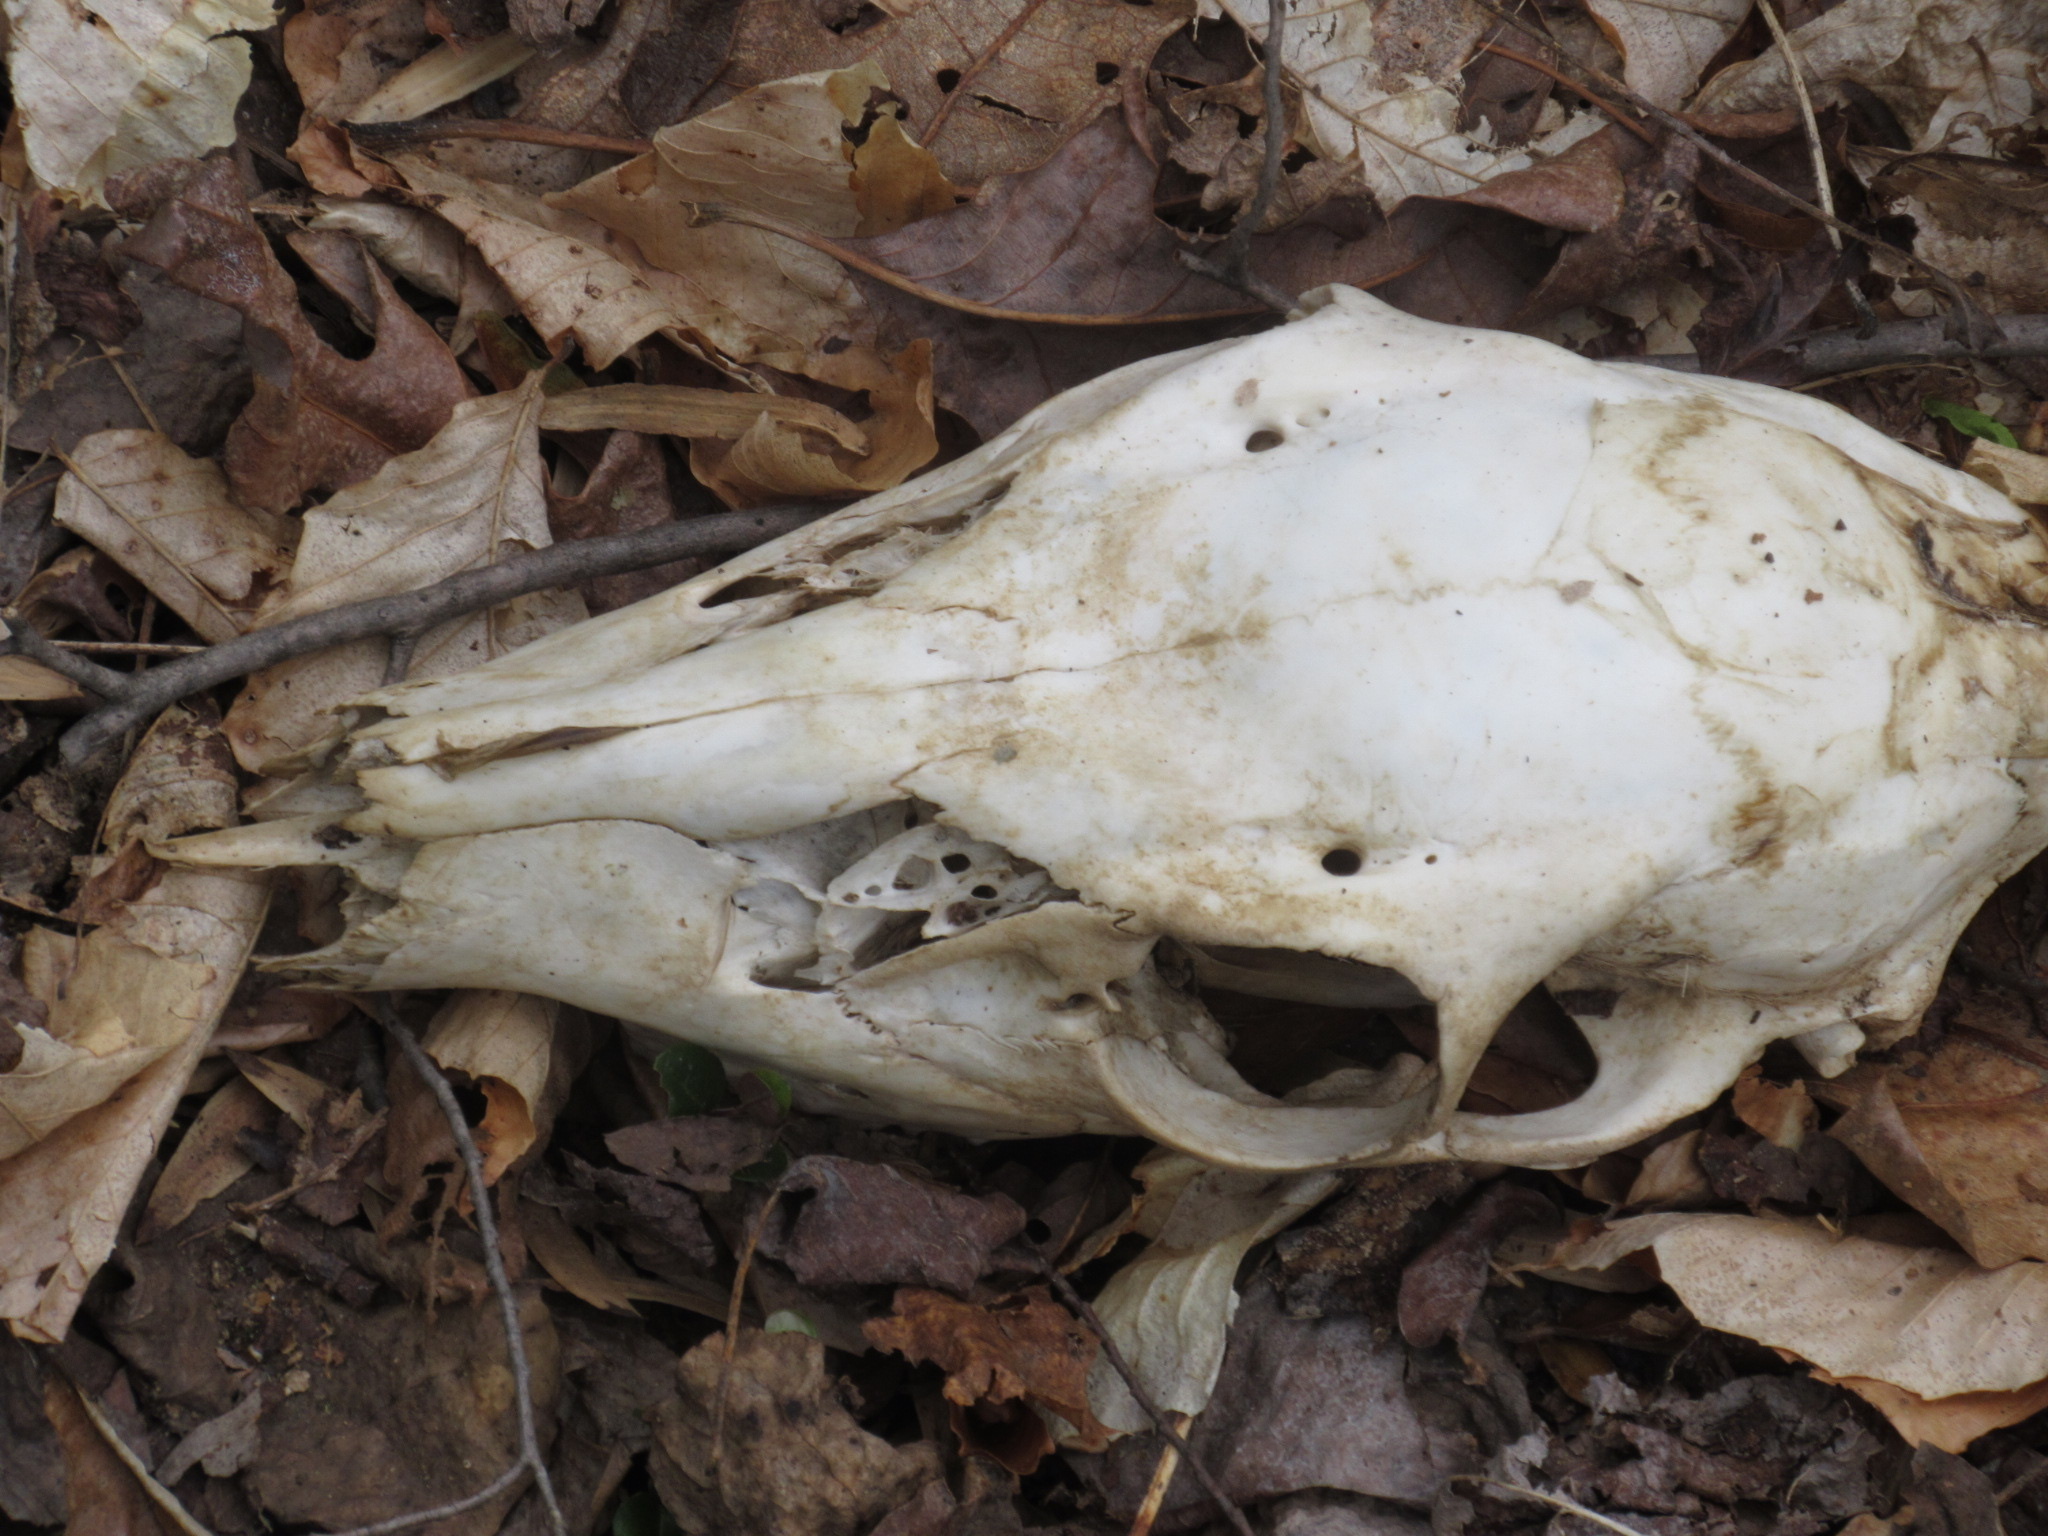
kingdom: Animalia
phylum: Chordata
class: Mammalia
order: Artiodactyla
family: Cervidae
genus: Odocoileus
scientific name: Odocoileus virginianus
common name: White-tailed deer
